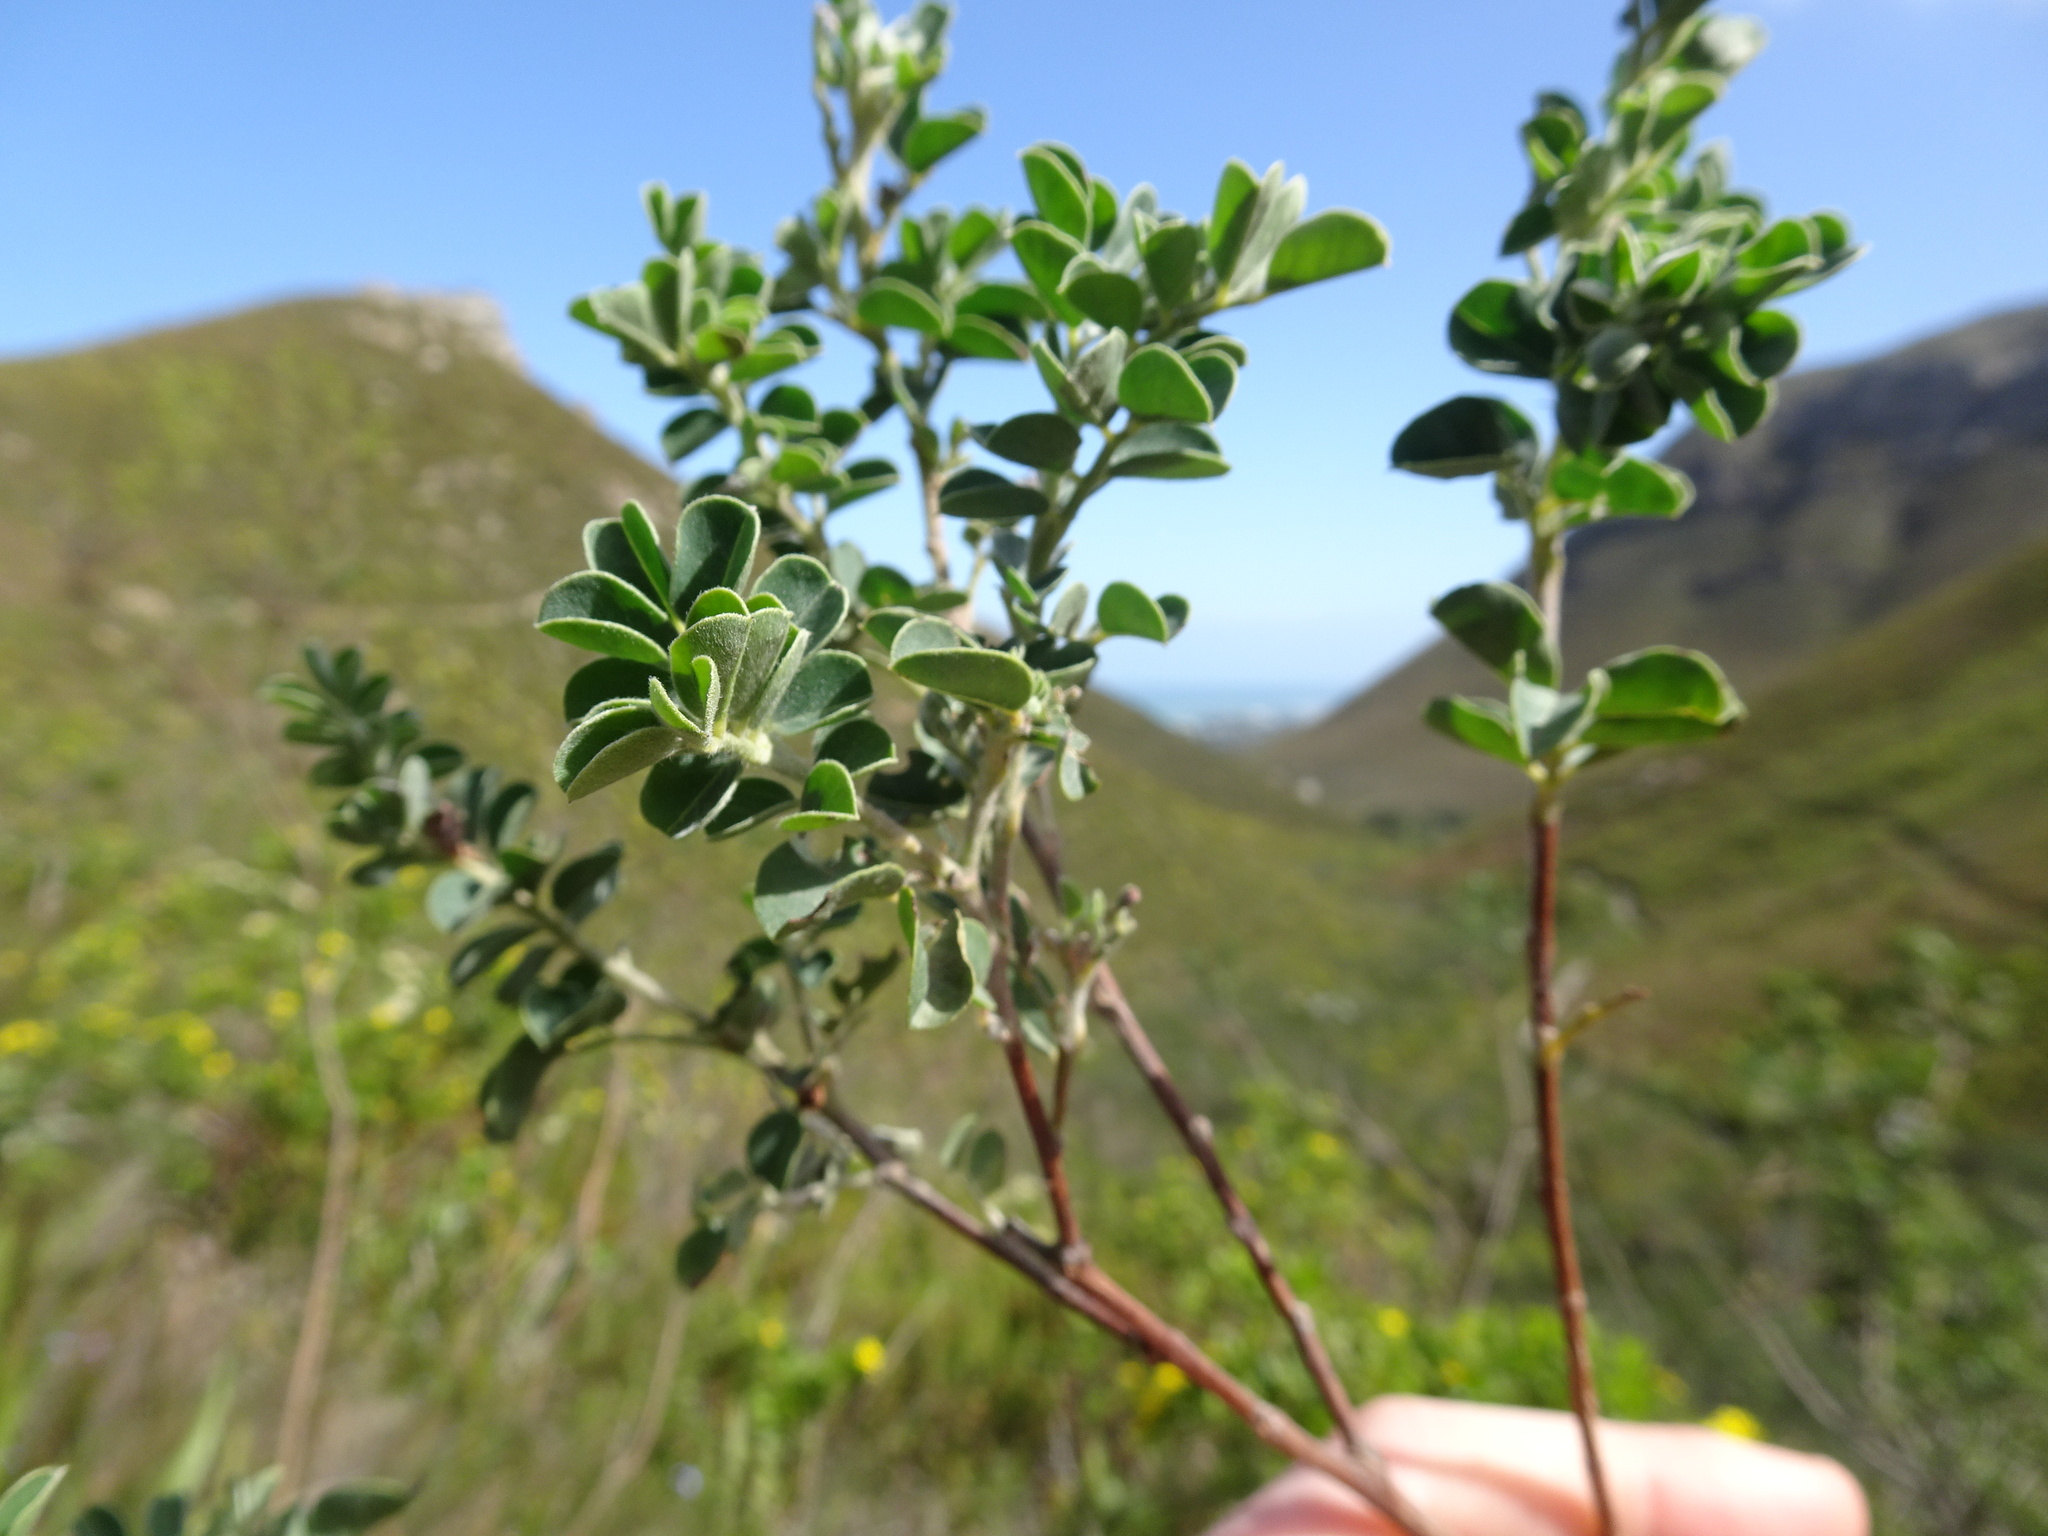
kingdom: Plantae
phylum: Tracheophyta
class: Magnoliopsida
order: Fabales
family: Fabaceae
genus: Indigofera
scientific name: Indigofera superba
